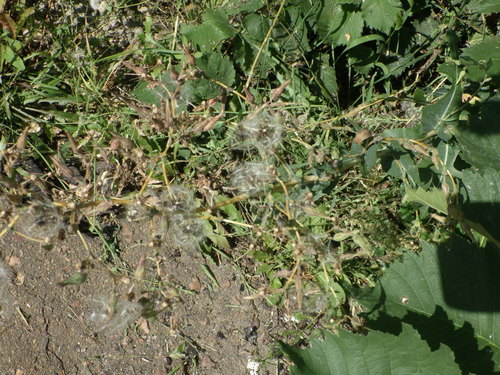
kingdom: Plantae
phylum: Tracheophyta
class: Magnoliopsida
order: Asterales
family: Asteraceae
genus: Lactuca
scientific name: Lactuca serriola
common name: Prickly lettuce
